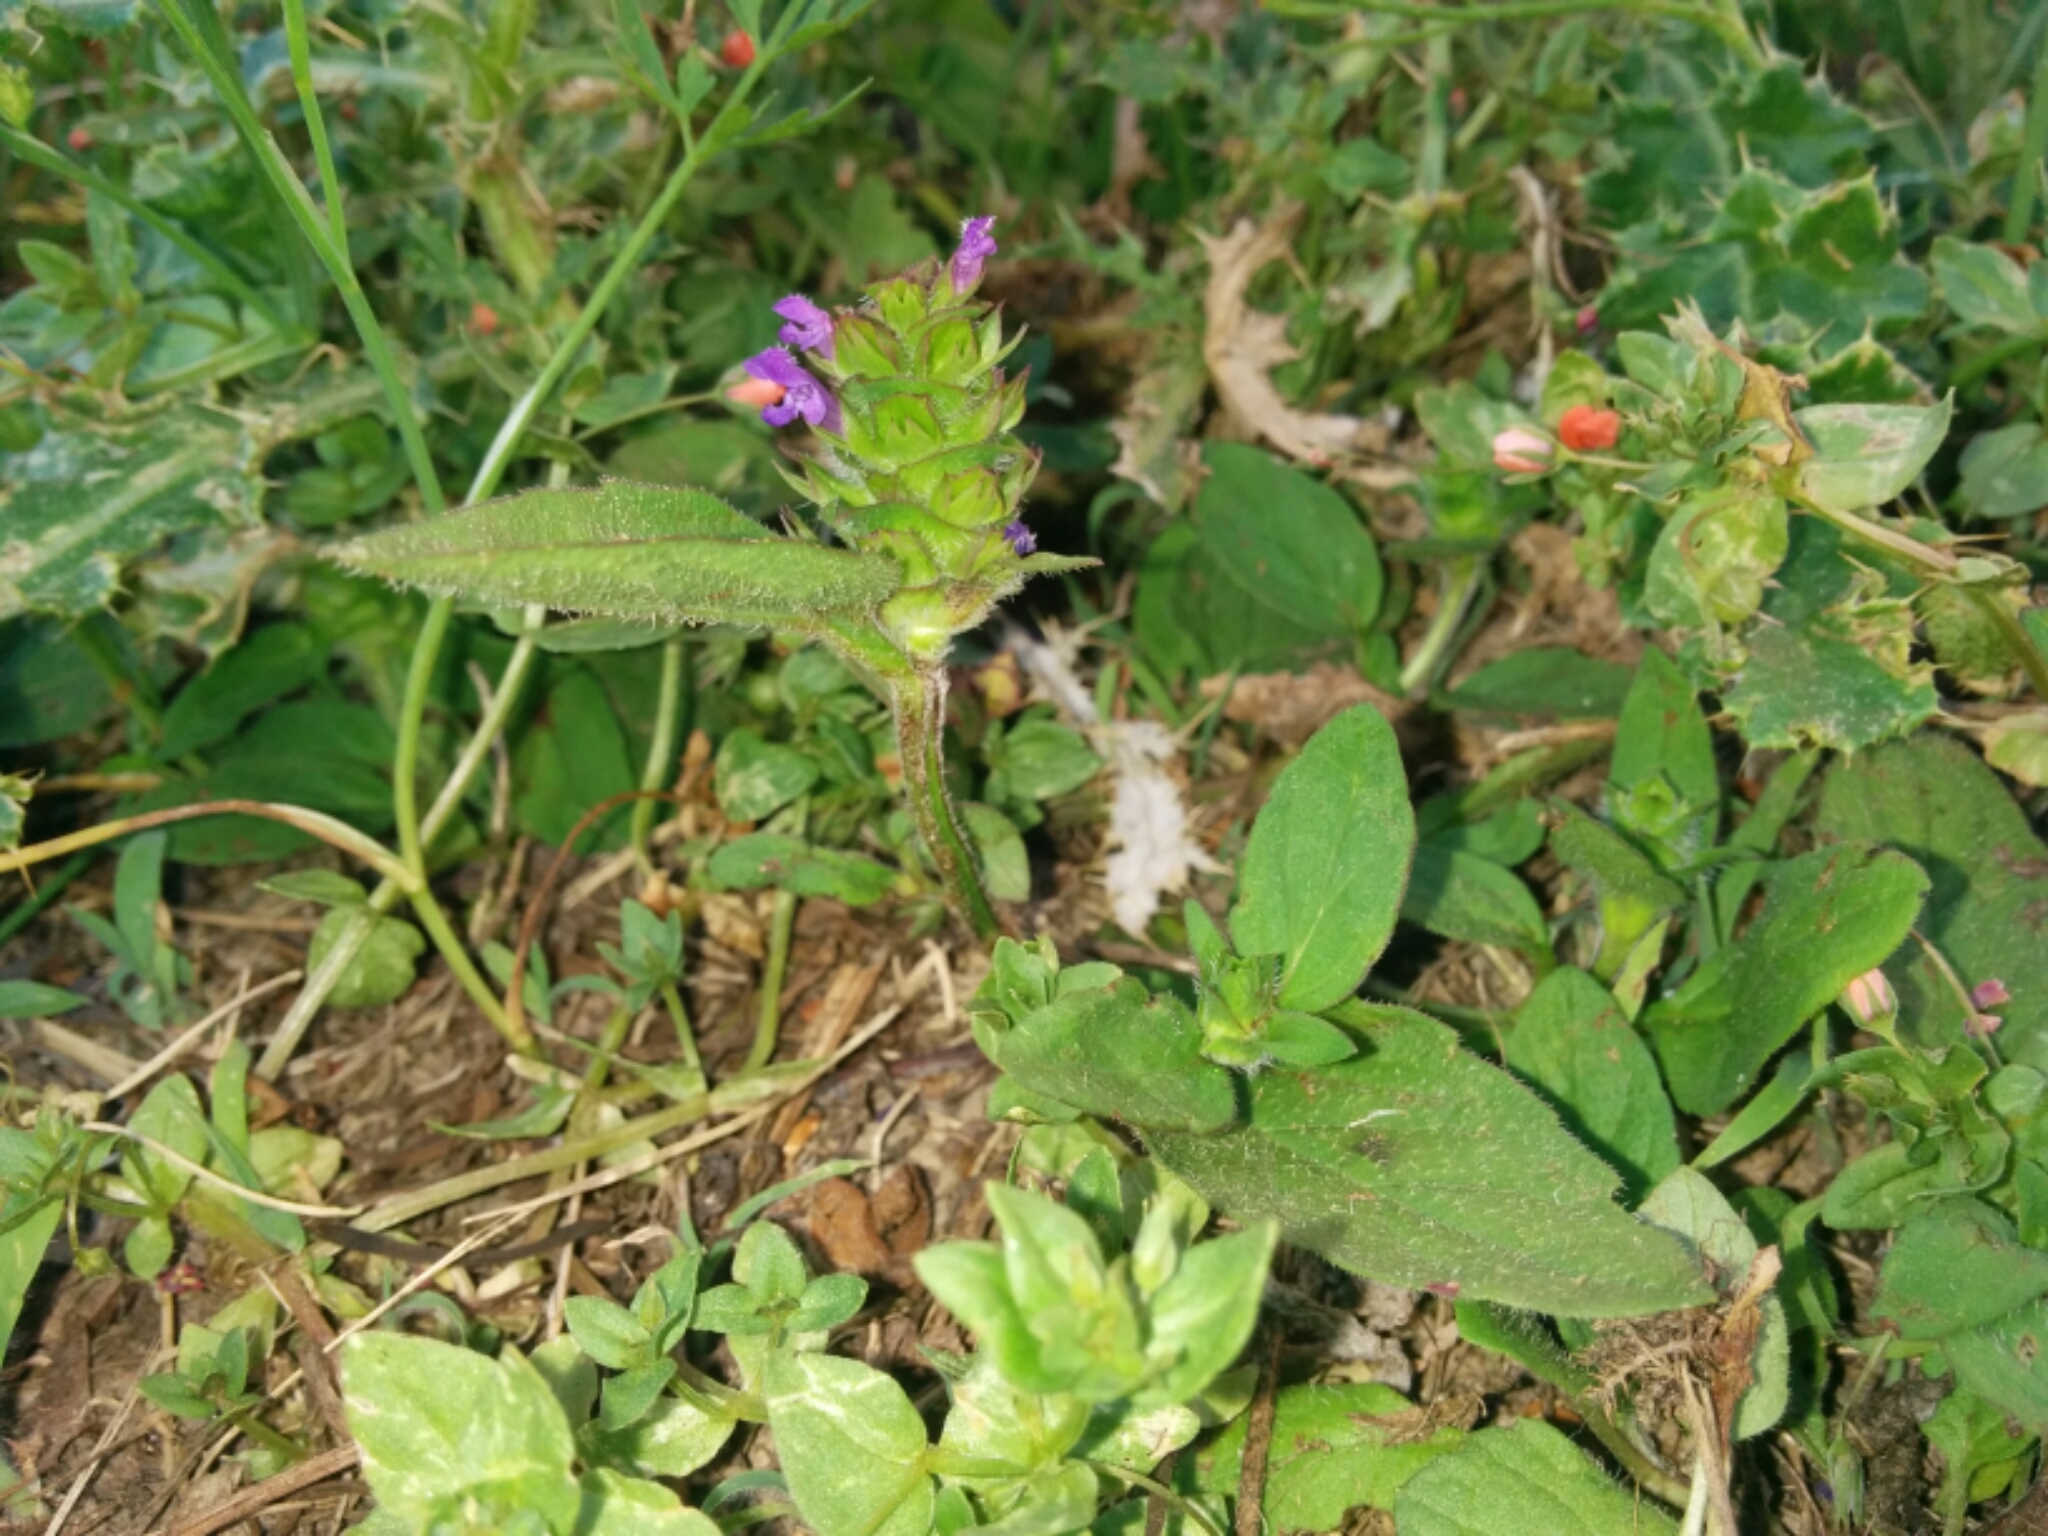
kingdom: Plantae
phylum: Tracheophyta
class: Magnoliopsida
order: Lamiales
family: Lamiaceae
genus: Prunella
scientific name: Prunella vulgaris
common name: Heal-all
